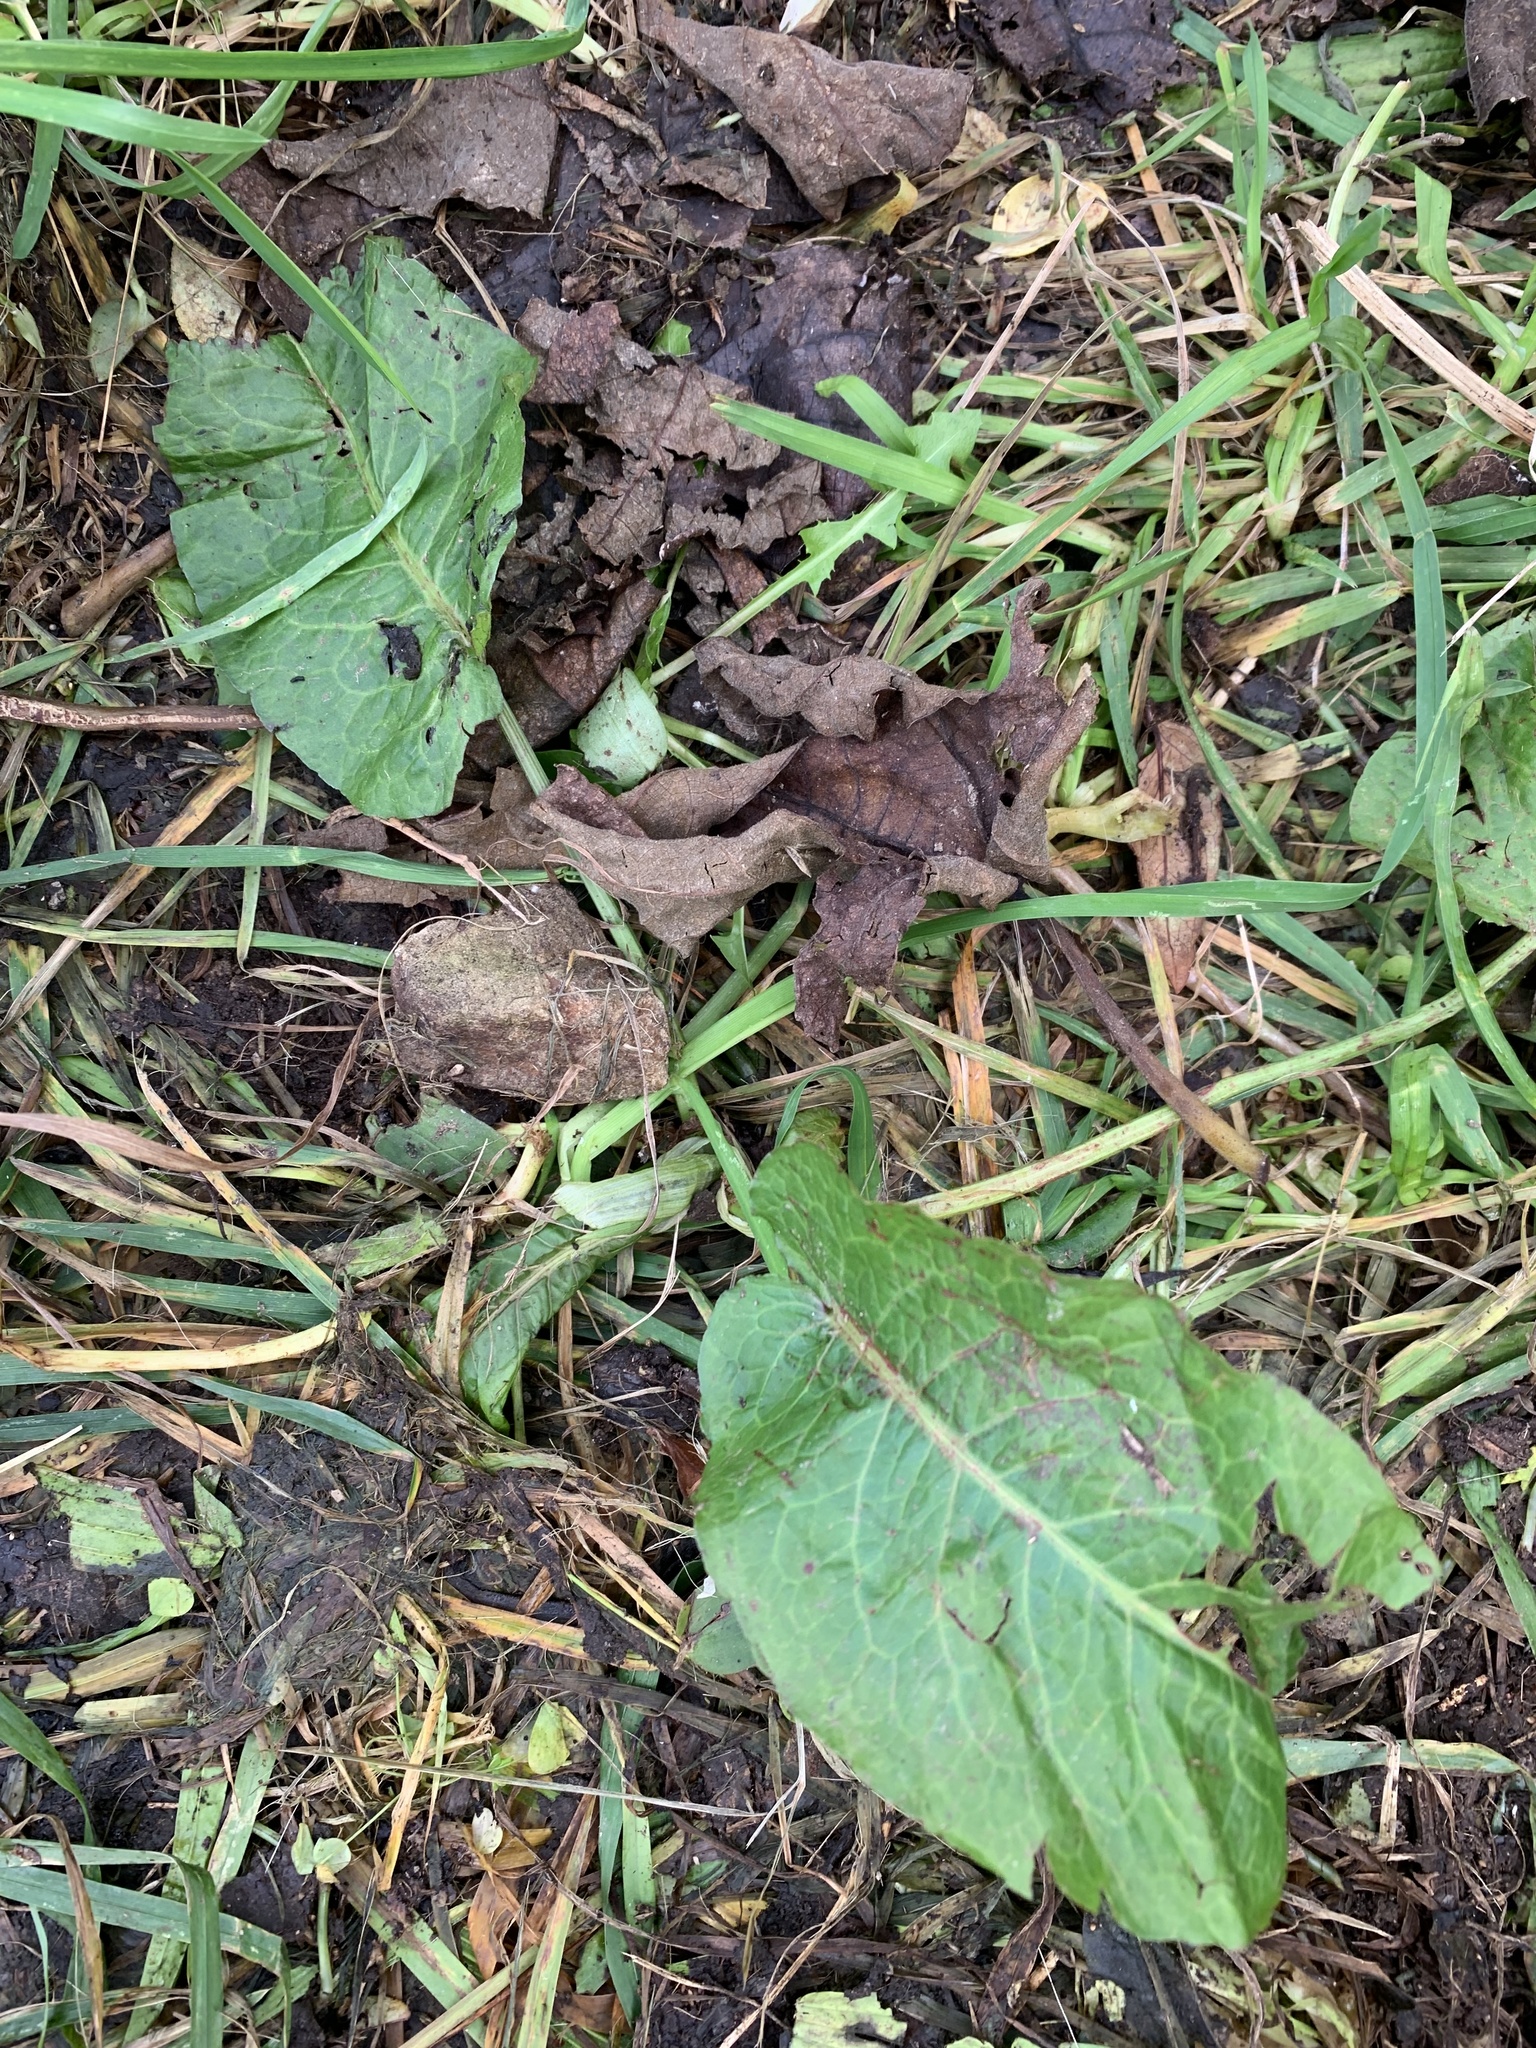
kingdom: Plantae
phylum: Tracheophyta
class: Magnoliopsida
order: Caryophyllales
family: Polygonaceae
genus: Rumex
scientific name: Rumex obtusifolius
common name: Bitter dock
